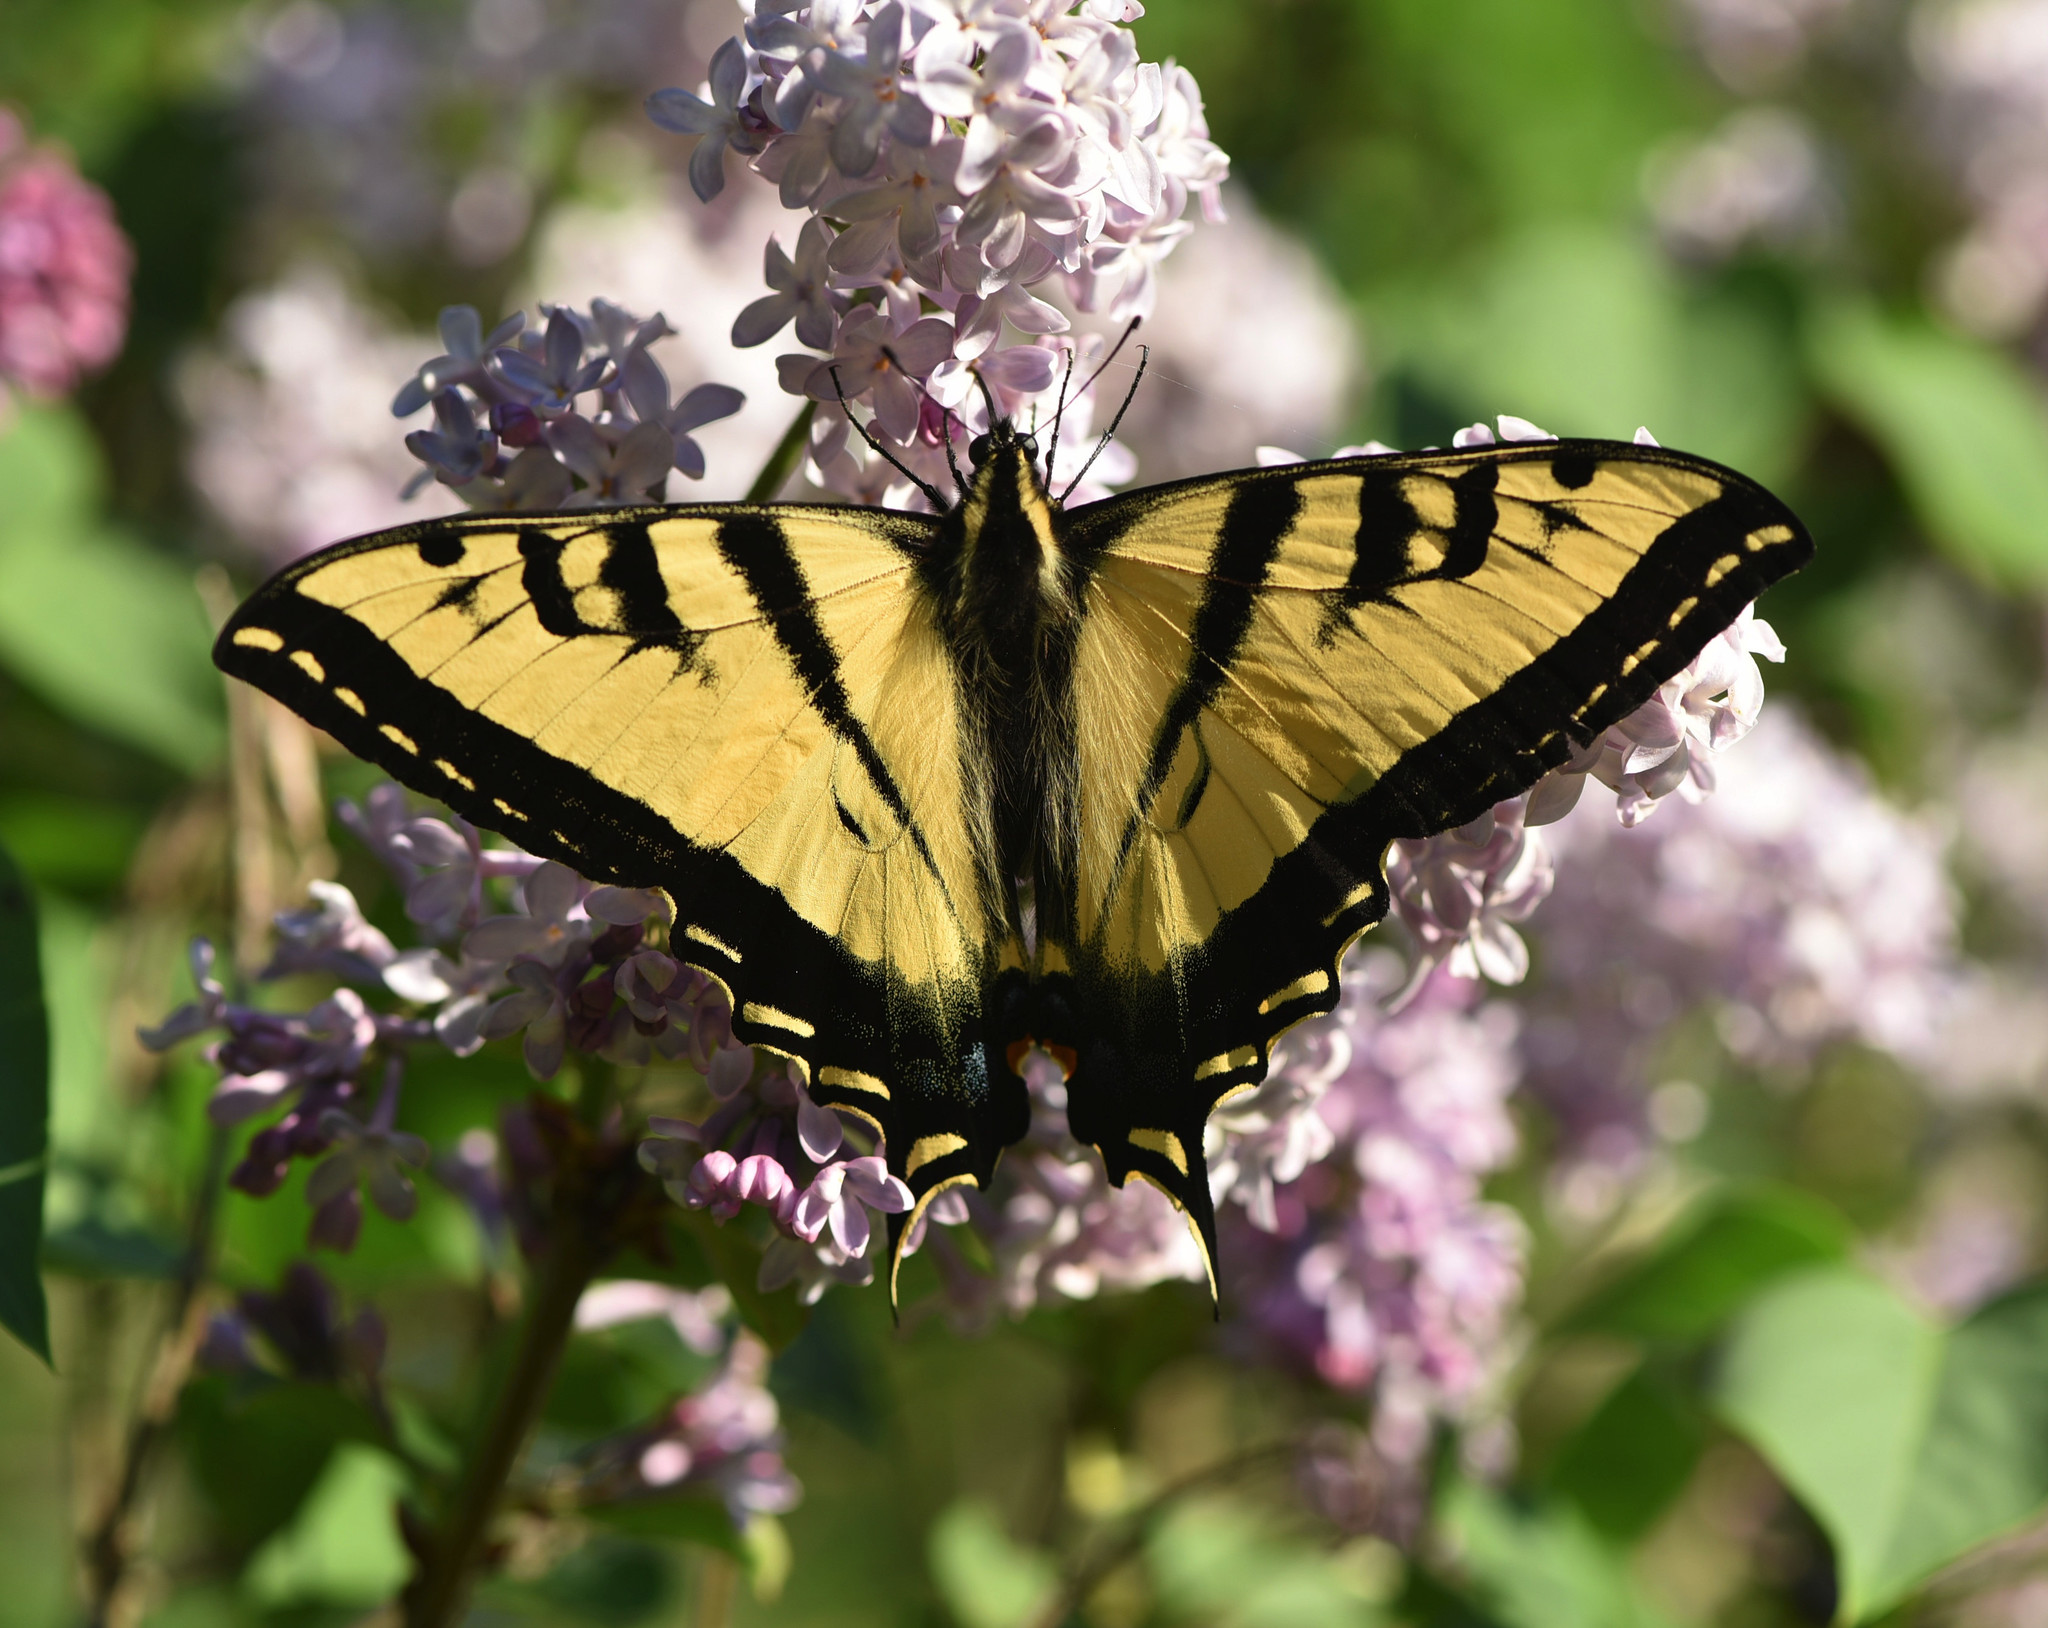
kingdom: Animalia
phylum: Arthropoda
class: Insecta
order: Lepidoptera
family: Papilionidae
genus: Papilio
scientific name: Papilio rutulus
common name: Western tiger swallowtail
